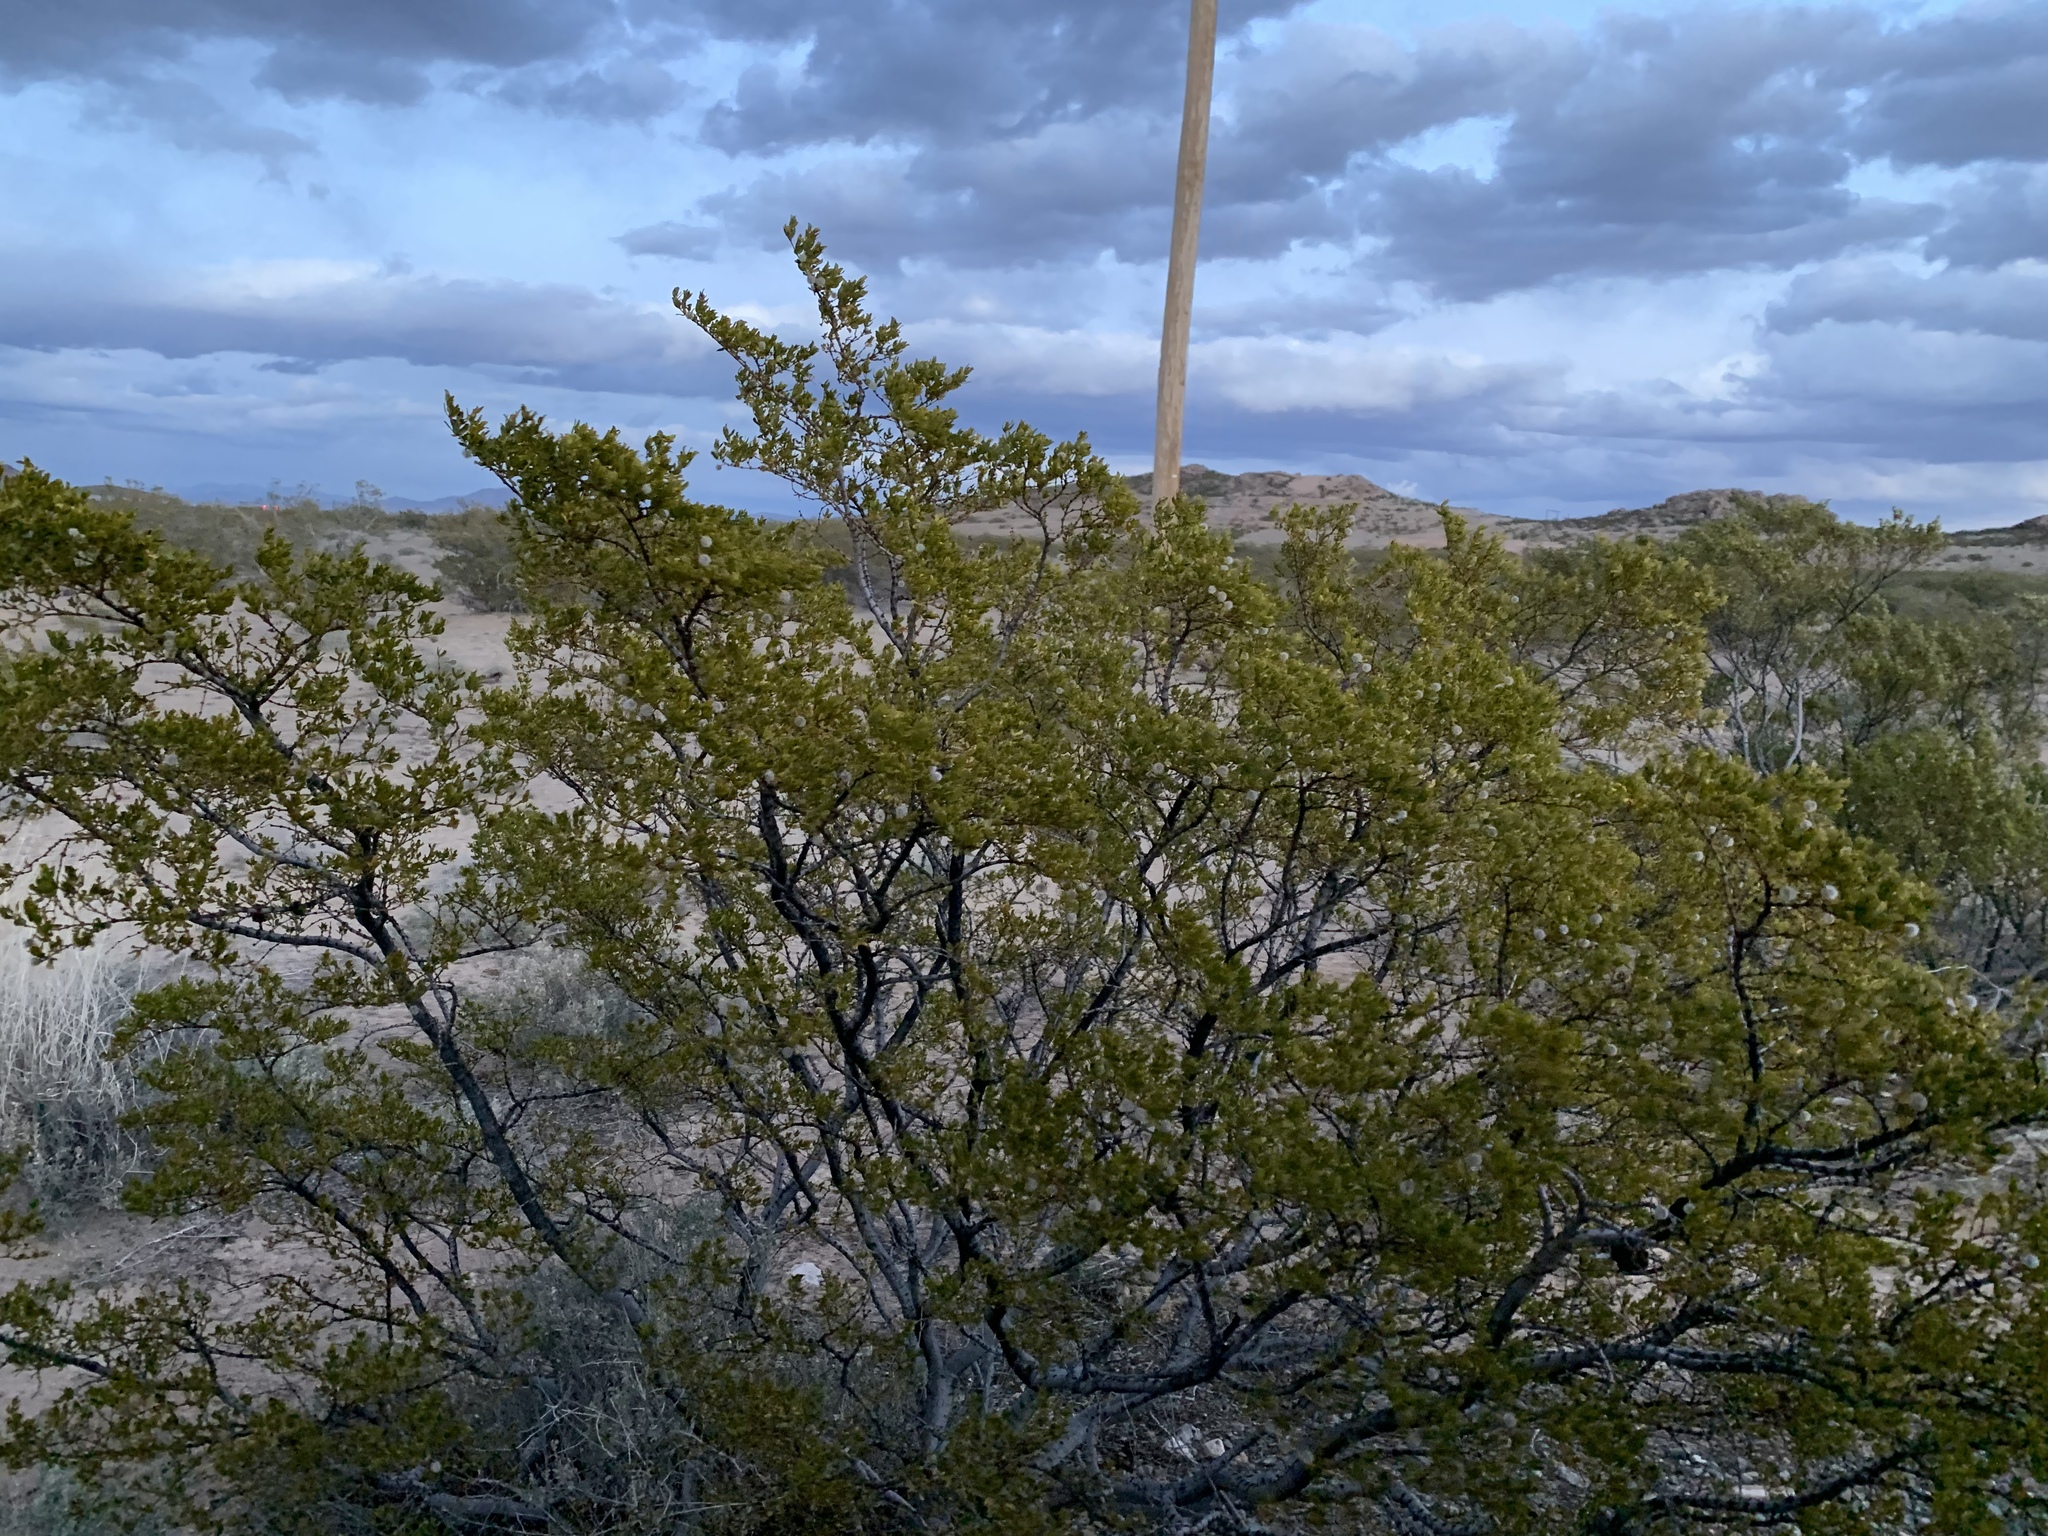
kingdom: Plantae
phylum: Tracheophyta
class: Magnoliopsida
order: Zygophyllales
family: Zygophyllaceae
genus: Larrea
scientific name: Larrea tridentata
